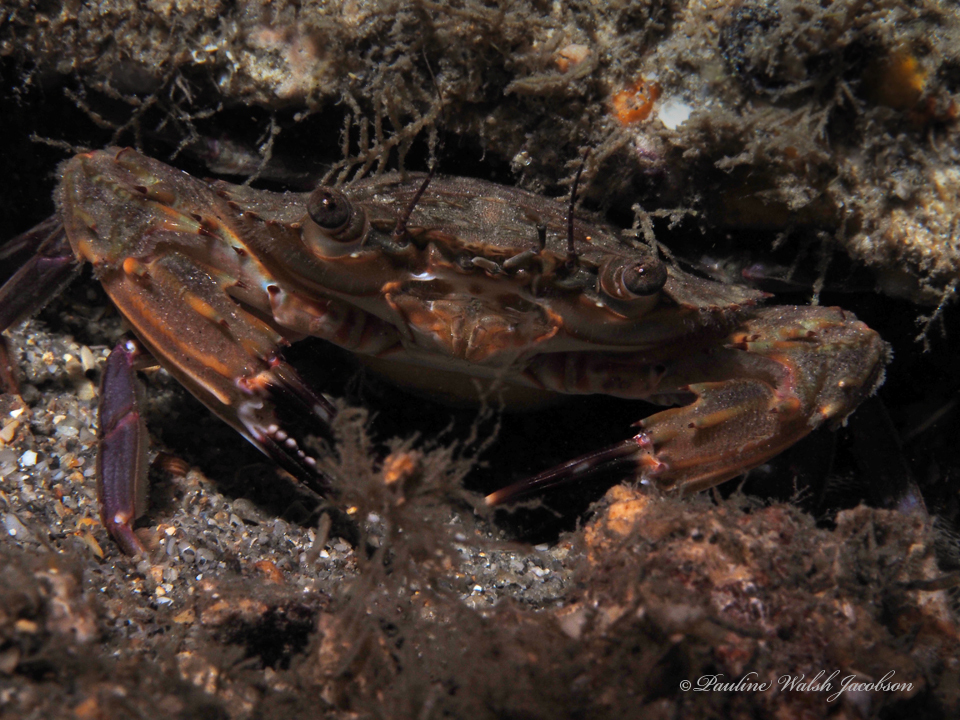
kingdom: Animalia
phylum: Arthropoda
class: Malacostraca
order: Decapoda
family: Portunidae
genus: Charybdis
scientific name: Charybdis hellerii
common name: Spiny hands
